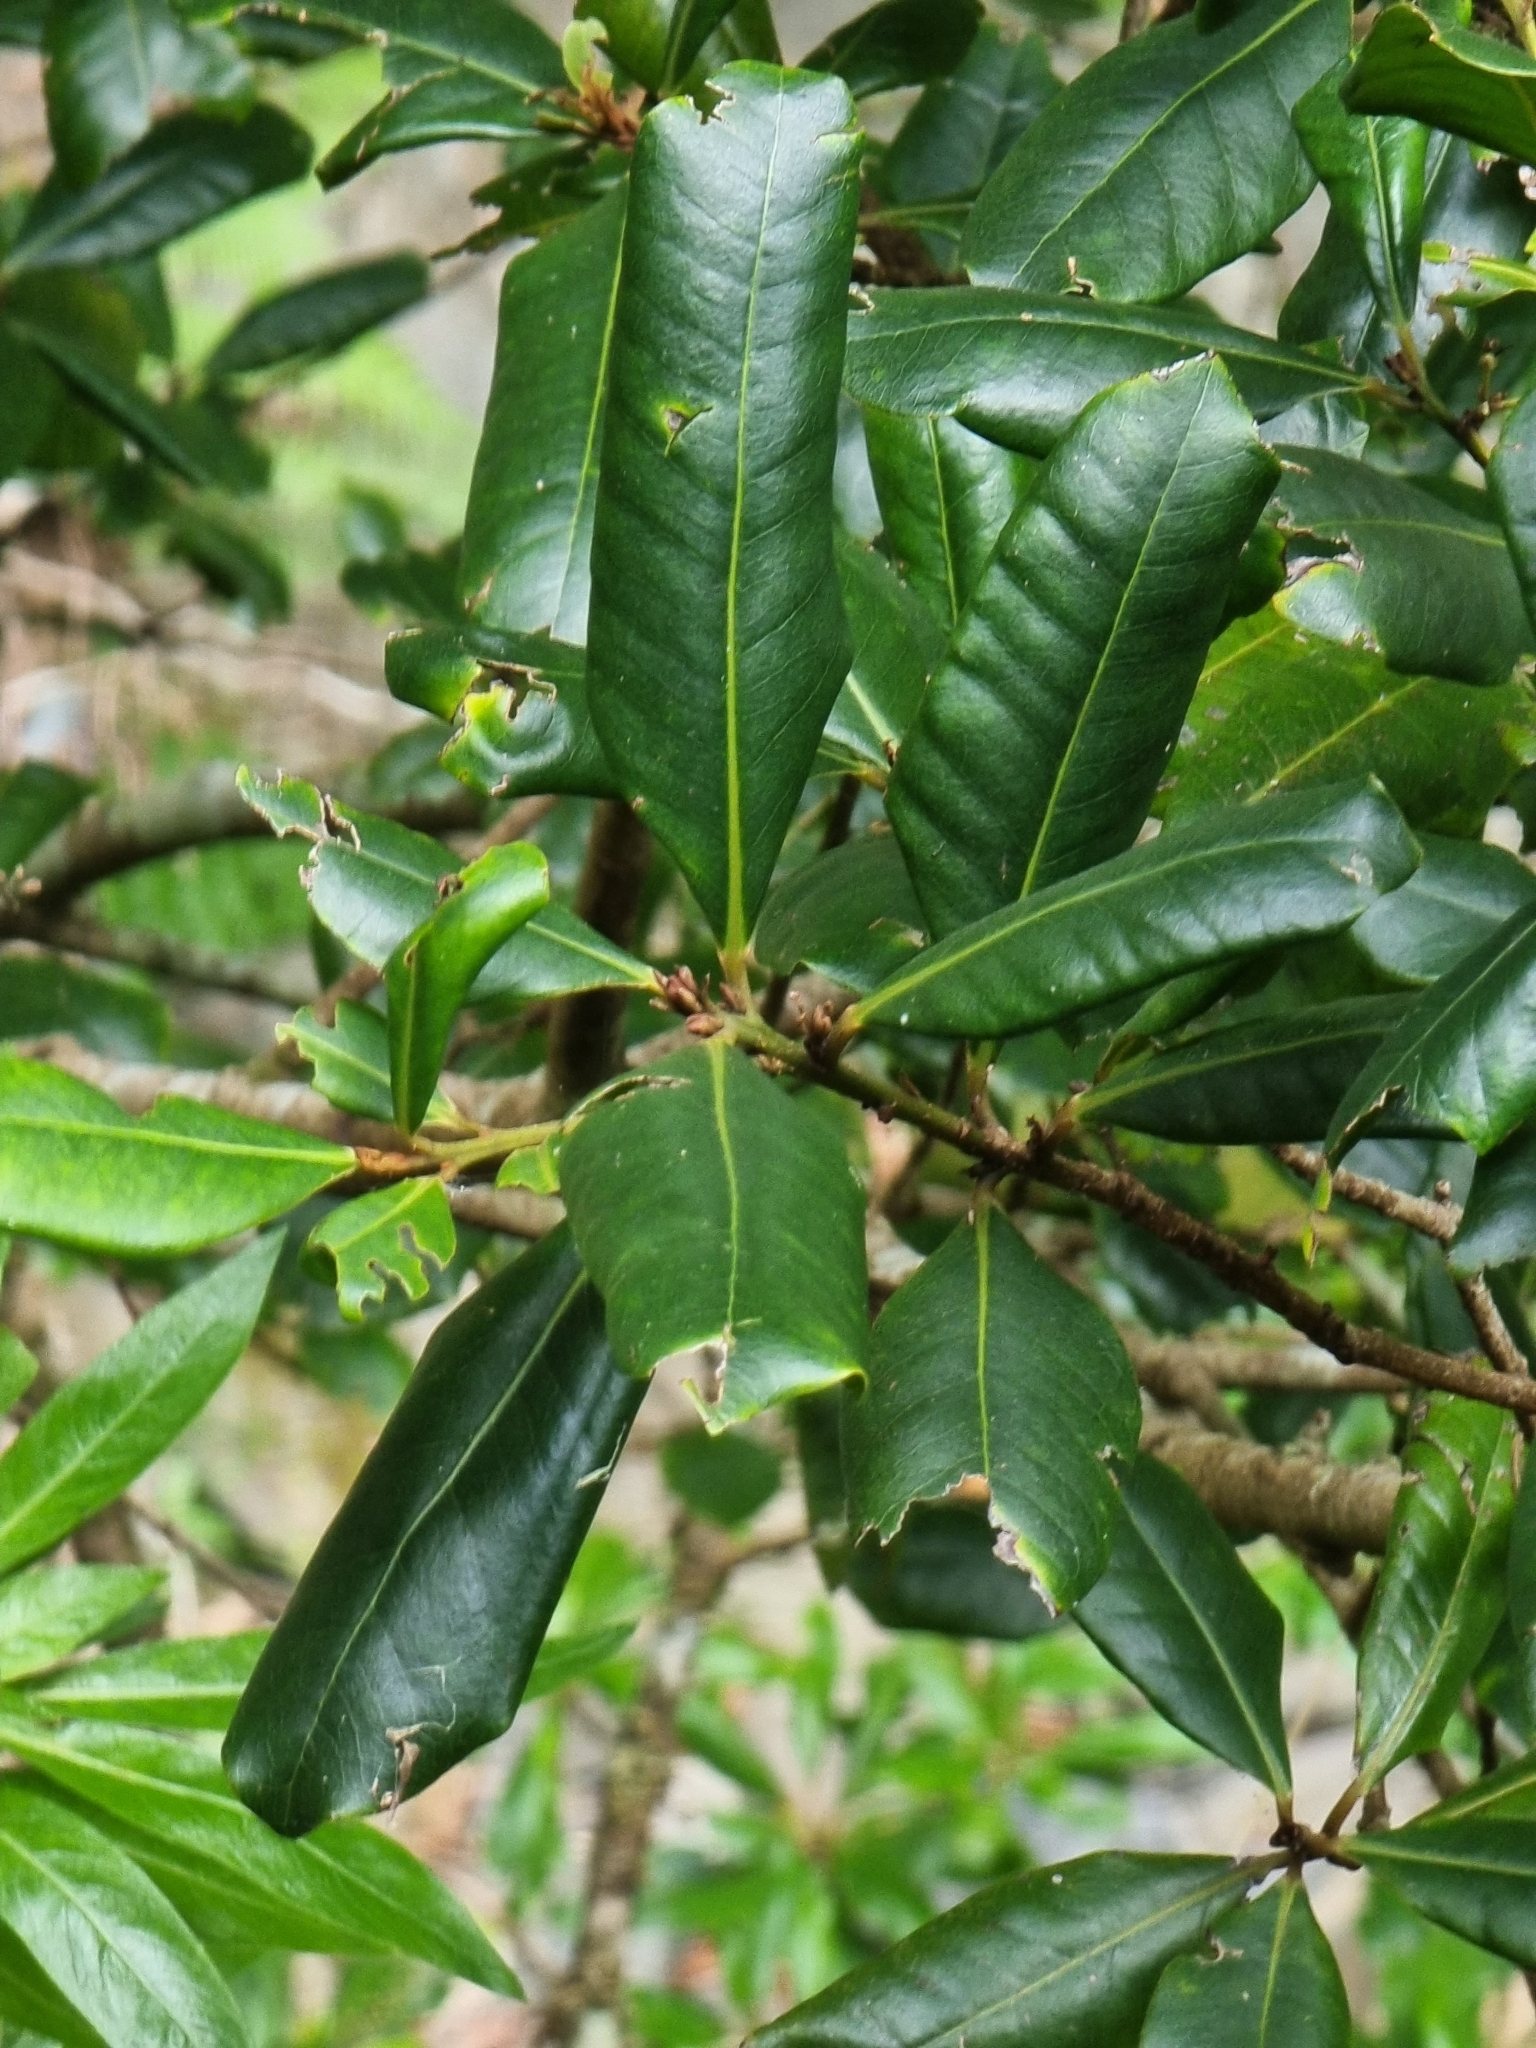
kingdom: Plantae
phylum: Tracheophyta
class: Magnoliopsida
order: Ericales
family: Primulaceae
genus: Heberdenia
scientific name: Heberdenia excelsa
